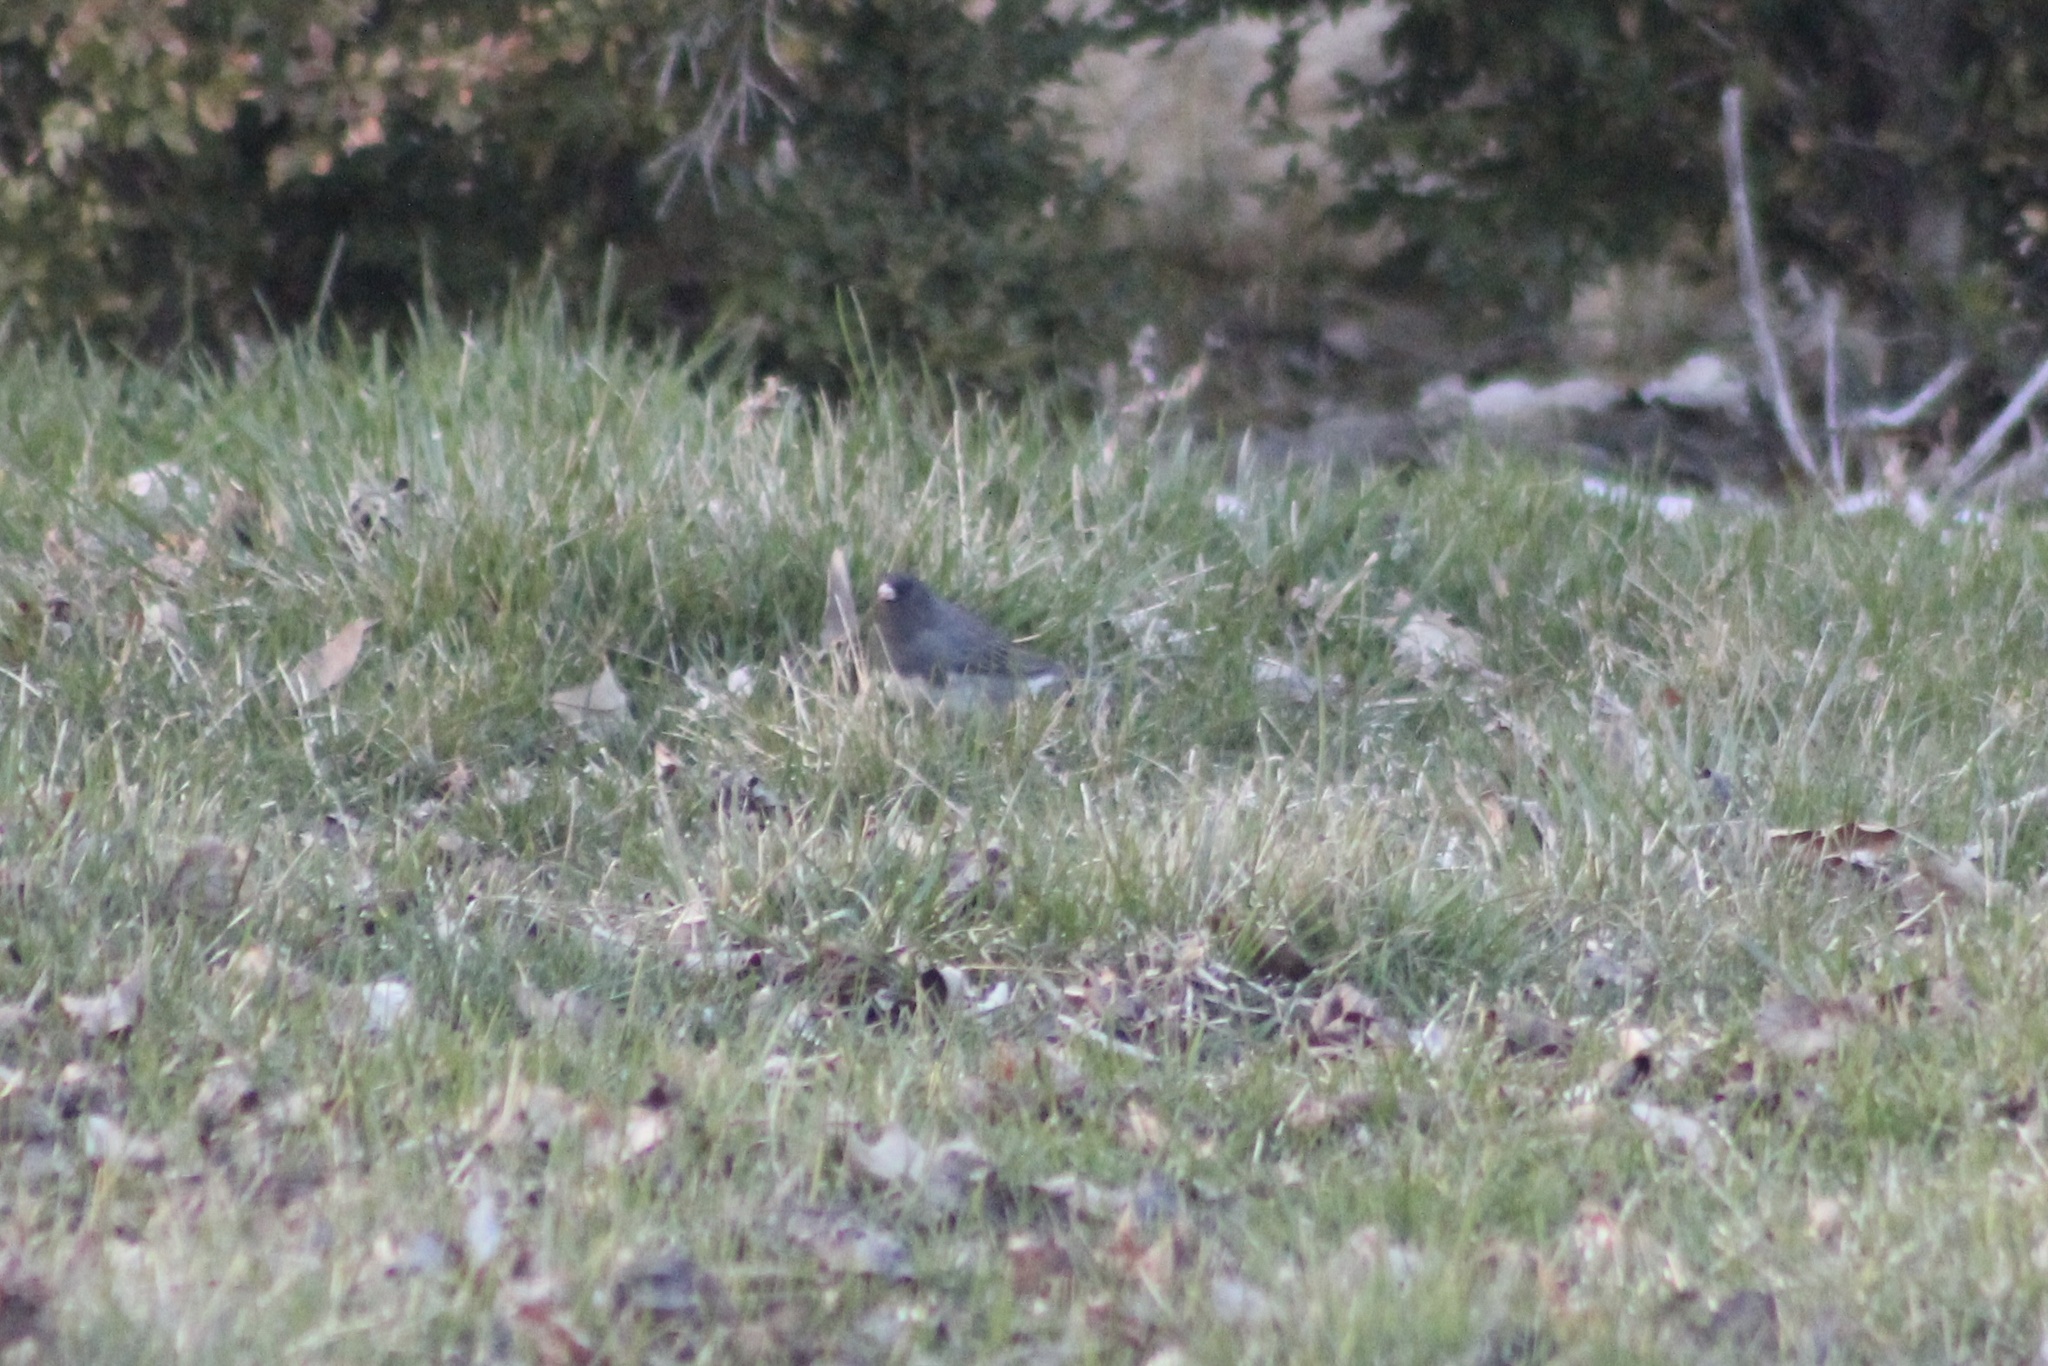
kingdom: Animalia
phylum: Chordata
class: Aves
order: Passeriformes
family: Passerellidae
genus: Junco
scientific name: Junco hyemalis
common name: Dark-eyed junco
